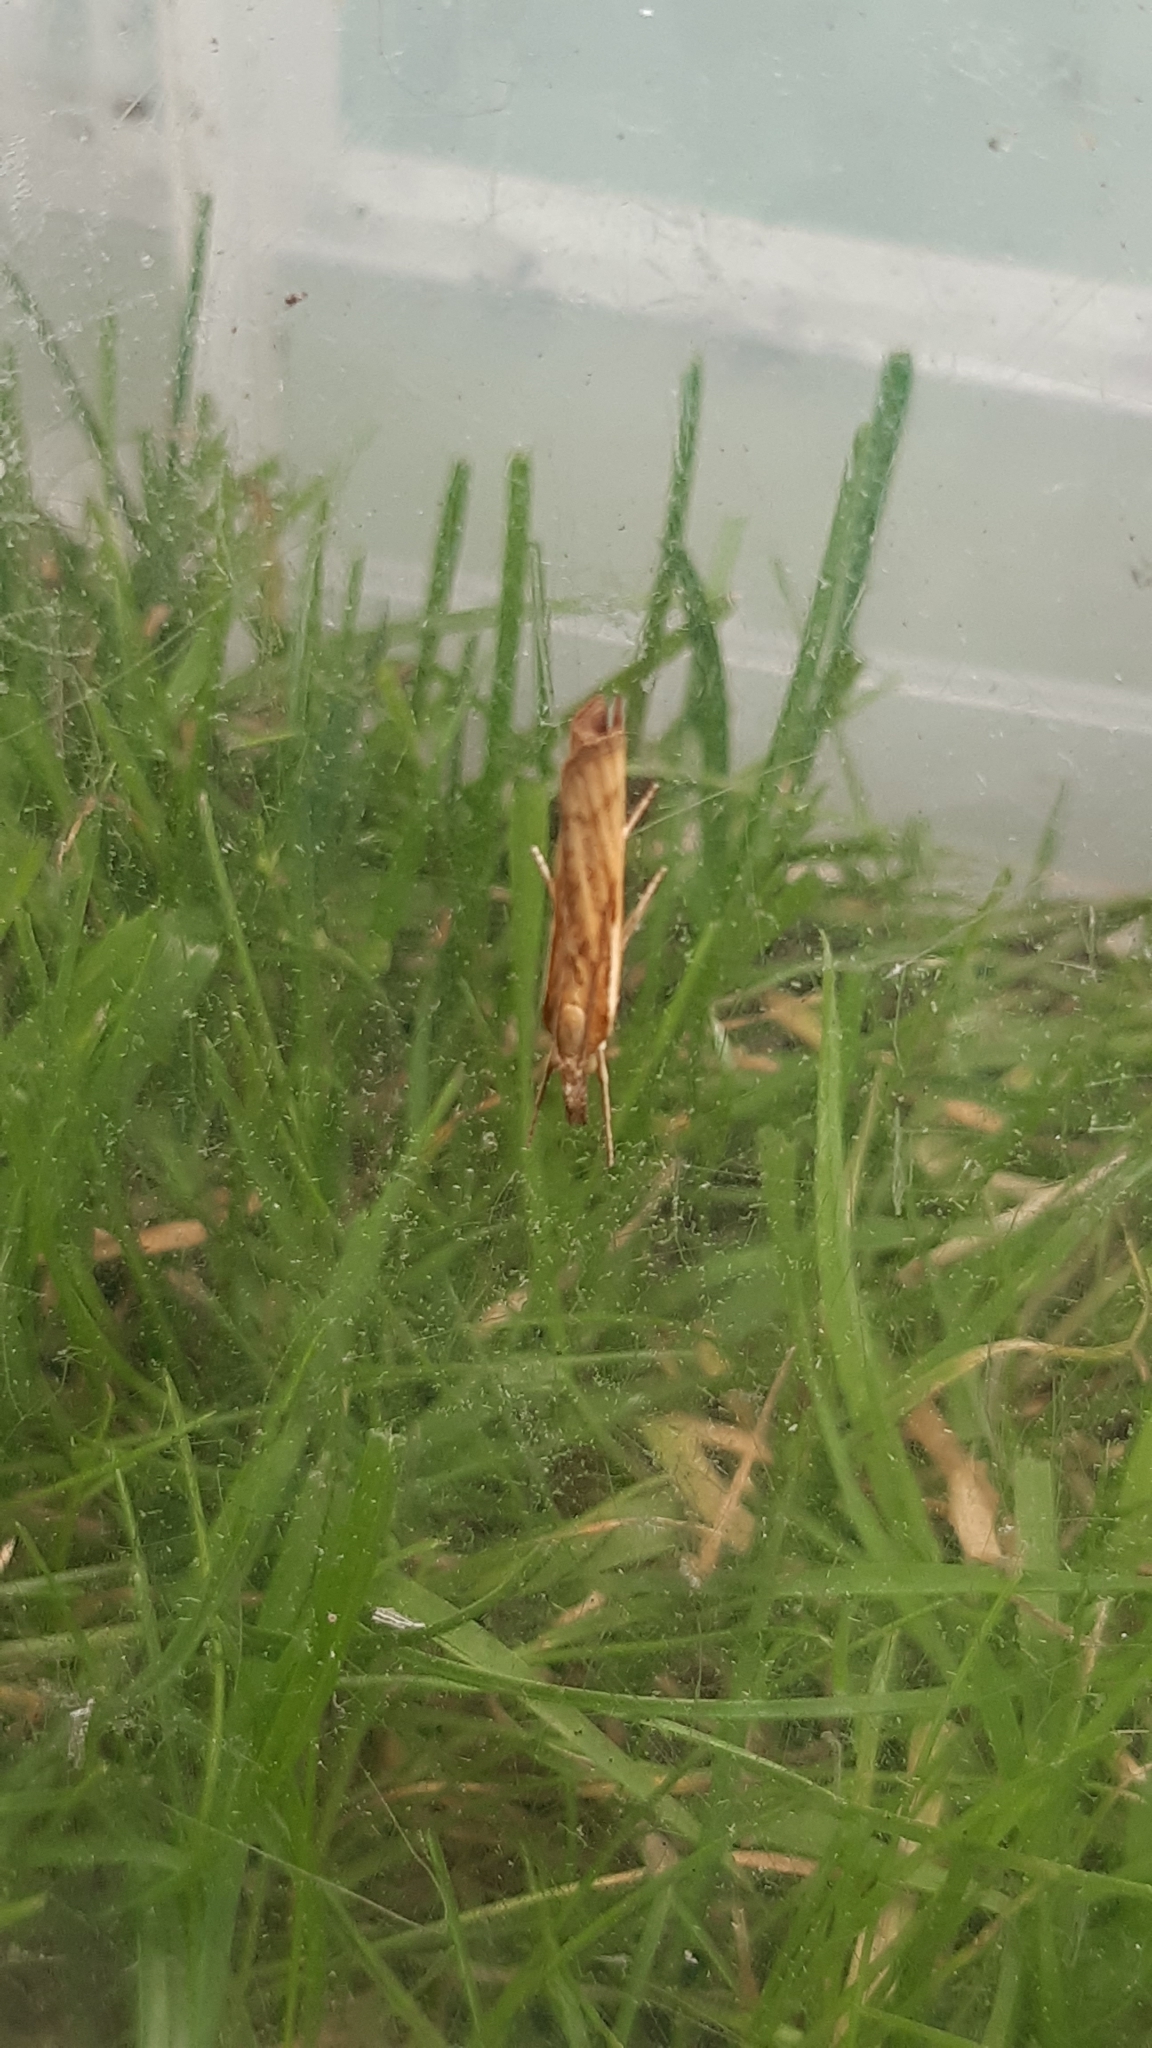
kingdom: Animalia
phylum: Arthropoda
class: Insecta
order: Lepidoptera
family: Crambidae
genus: Agriphila
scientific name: Agriphila tristellus
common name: Common grass-veneer
